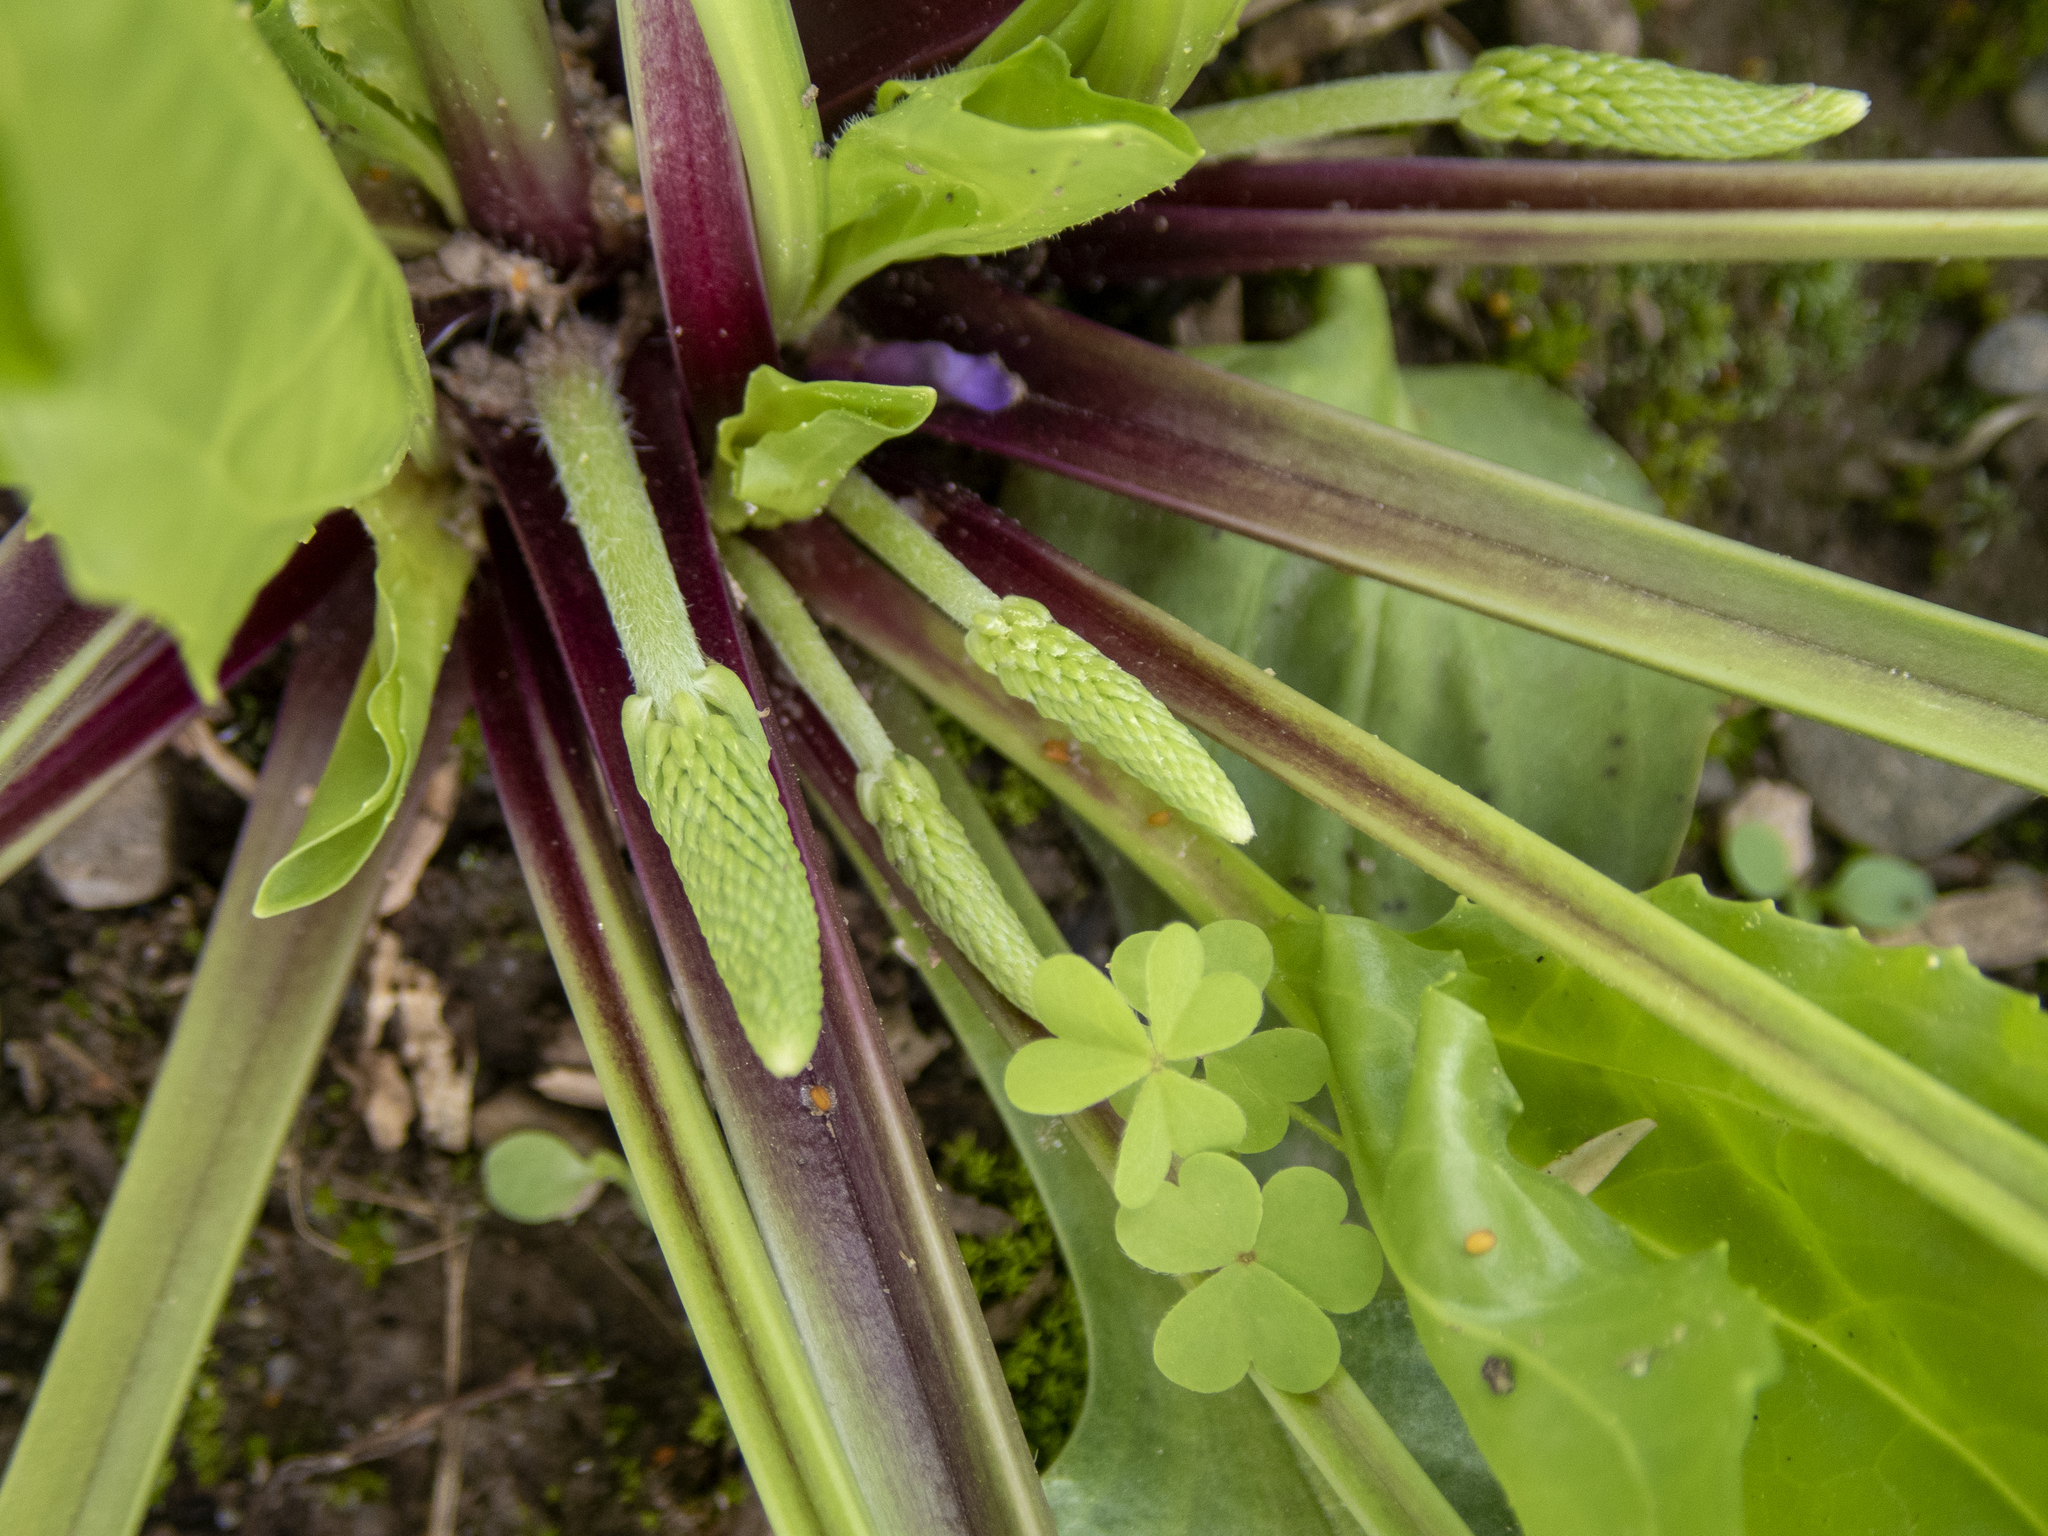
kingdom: Plantae
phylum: Tracheophyta
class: Magnoliopsida
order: Lamiales
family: Plantaginaceae
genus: Plantago
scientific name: Plantago rugelii
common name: American plantain
